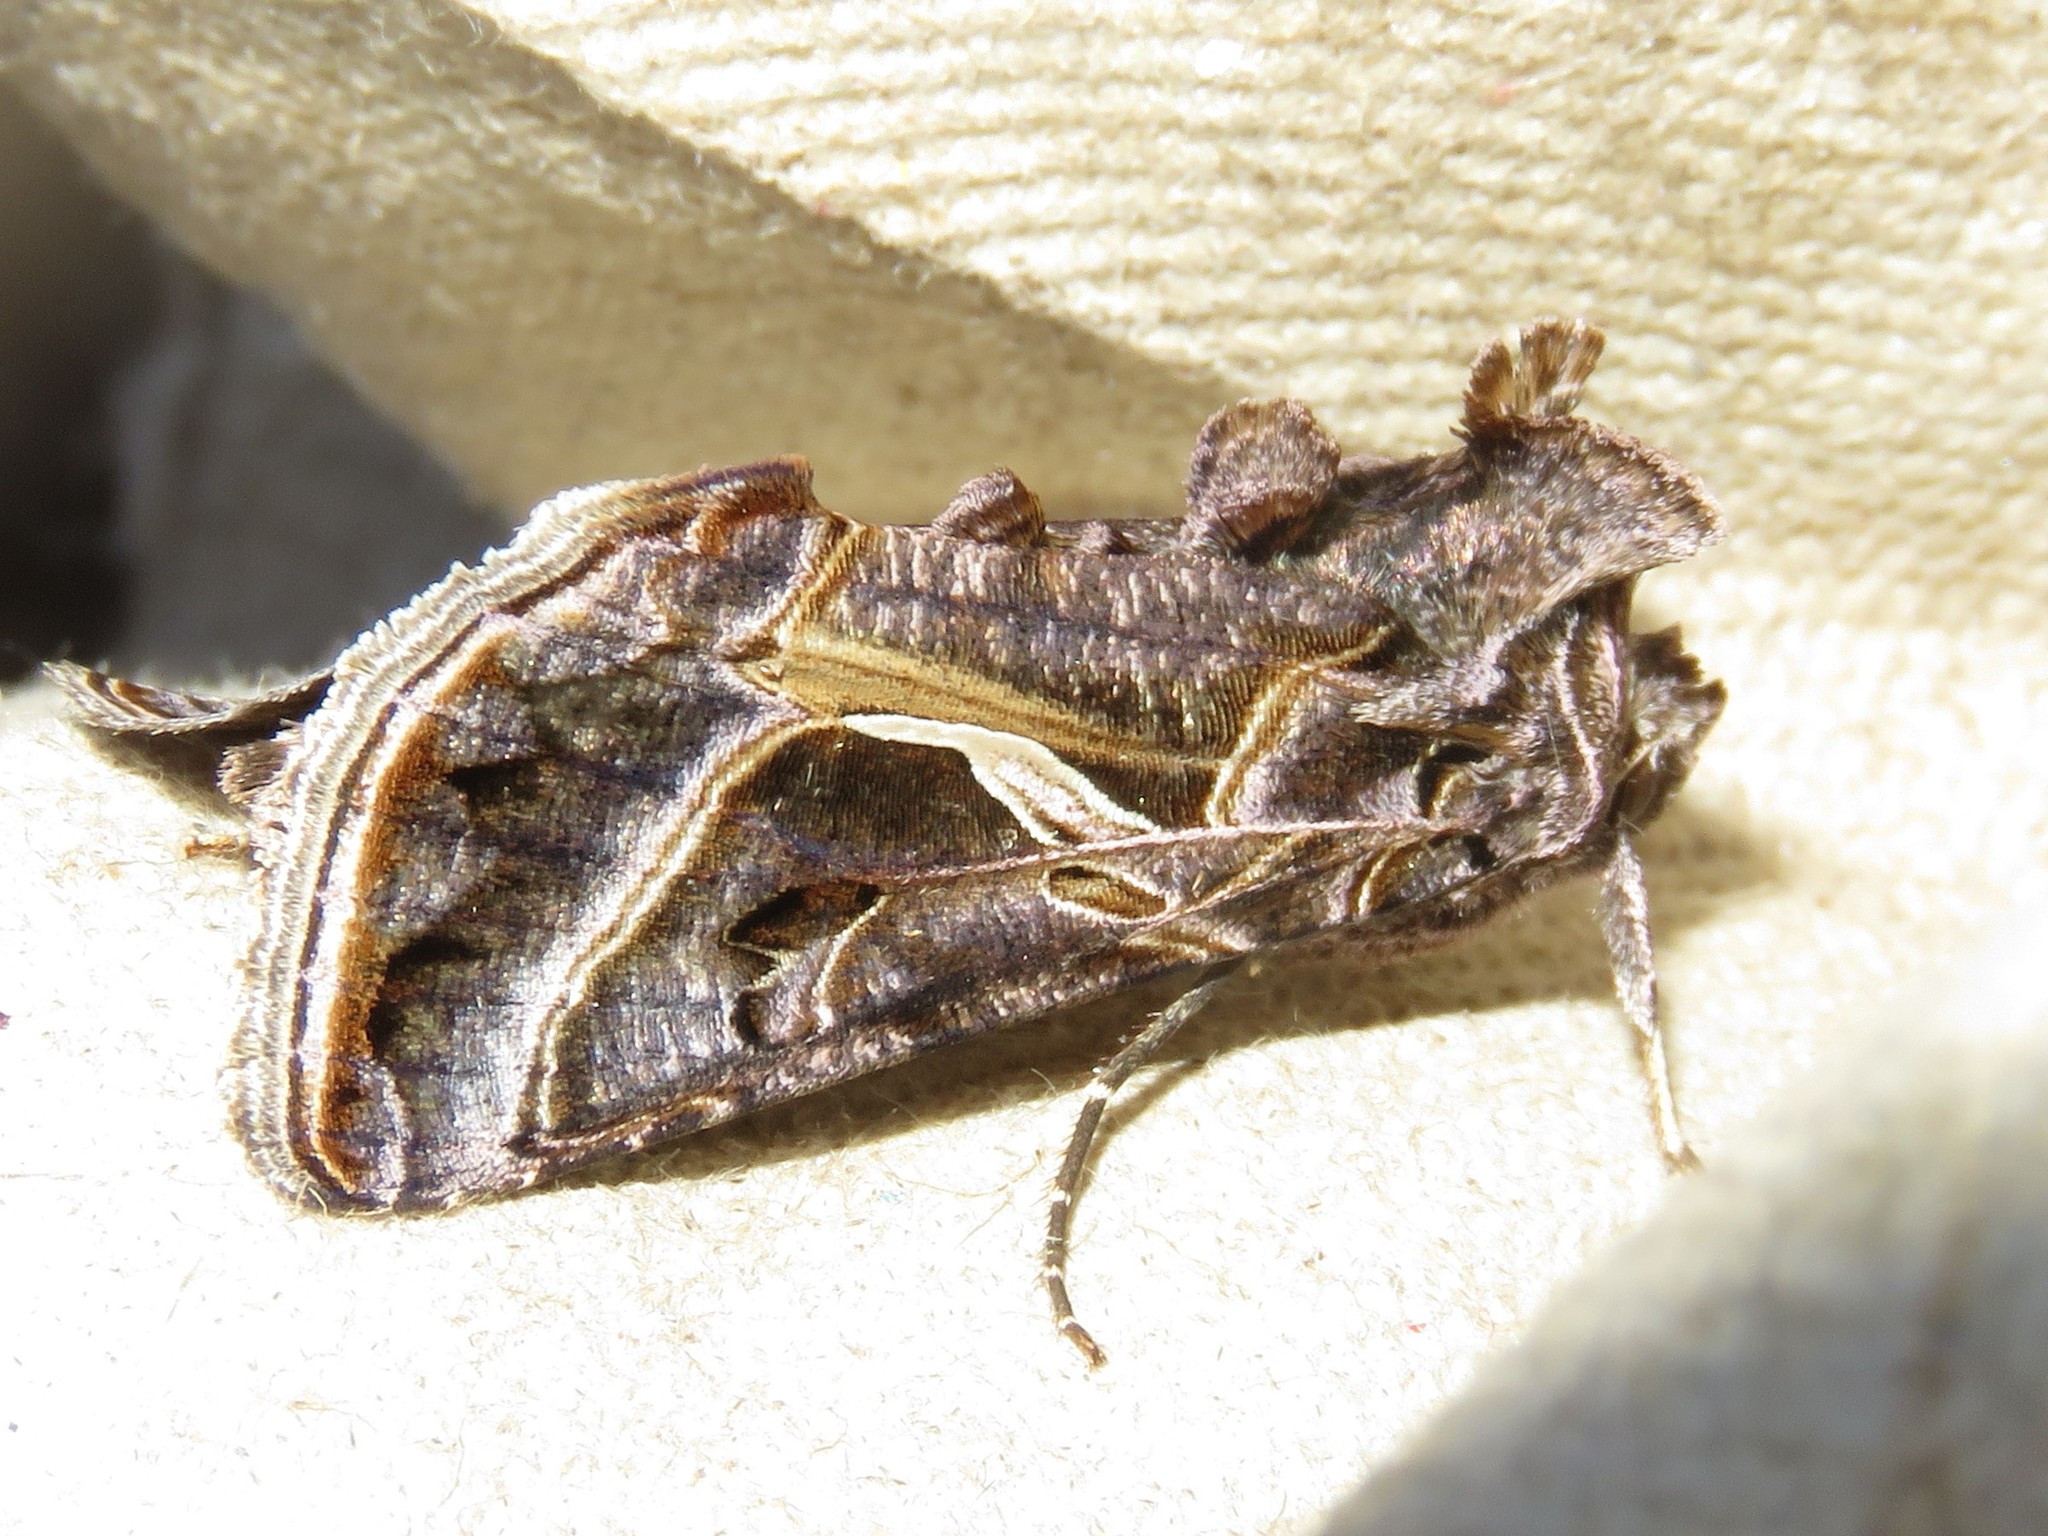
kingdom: Animalia
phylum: Arthropoda
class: Insecta
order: Lepidoptera
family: Noctuidae
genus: Autographa
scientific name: Autographa flagellum
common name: Silver whip moth
